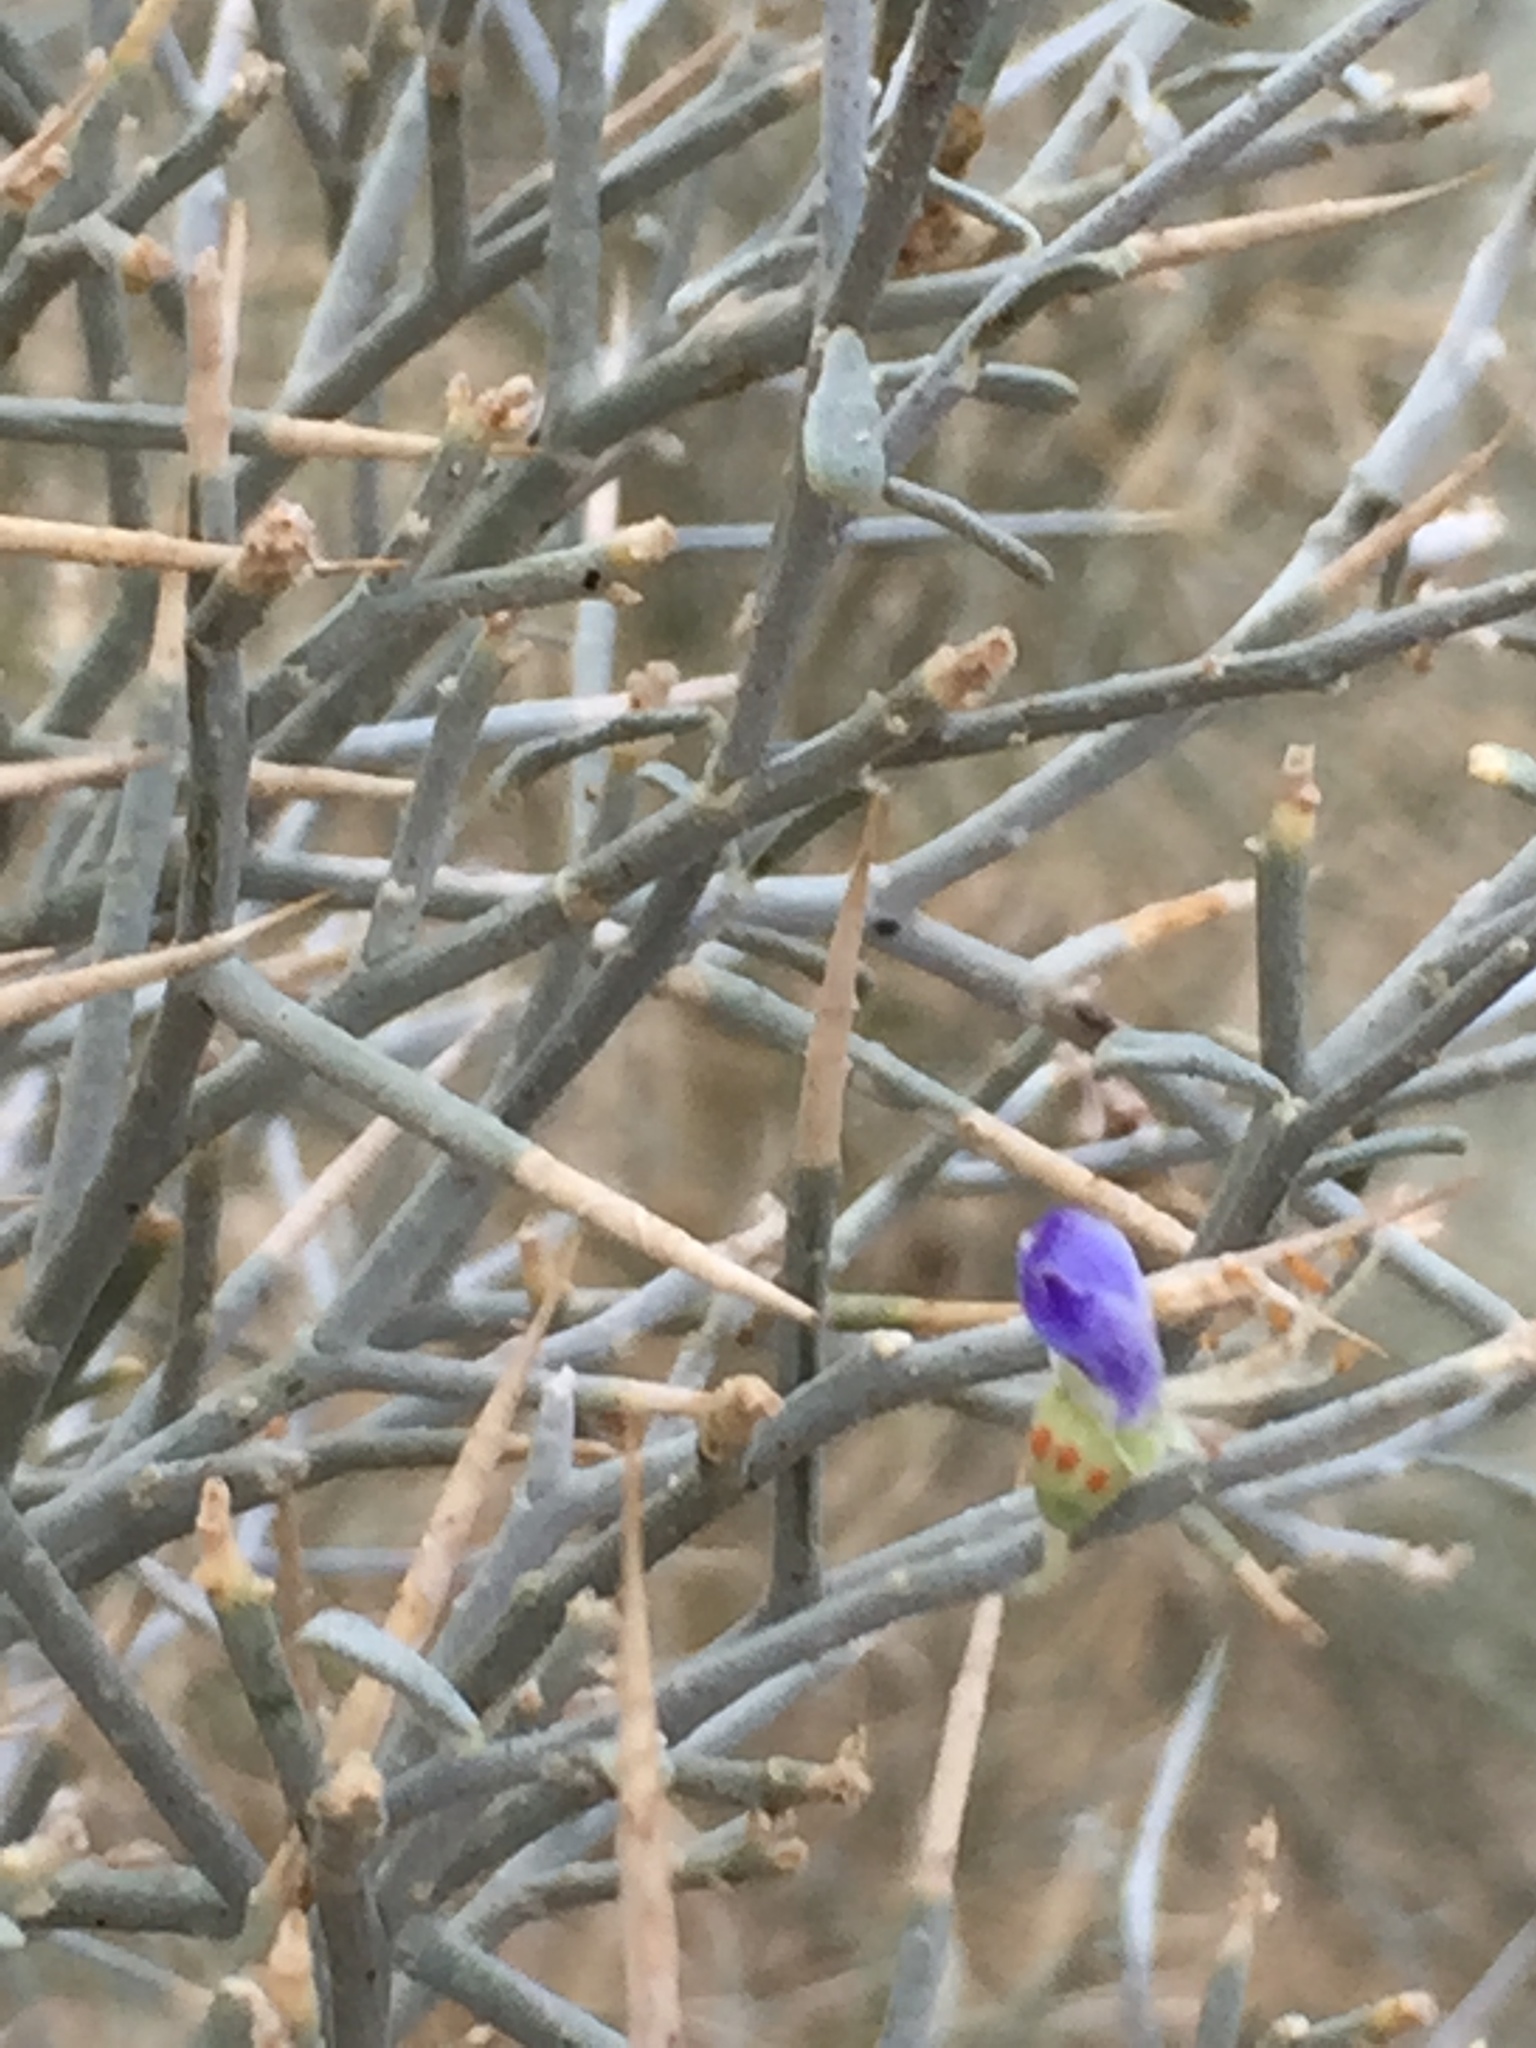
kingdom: Plantae
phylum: Tracheophyta
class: Magnoliopsida
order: Fabales
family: Fabaceae
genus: Psorothamnus
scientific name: Psorothamnus spinosus
